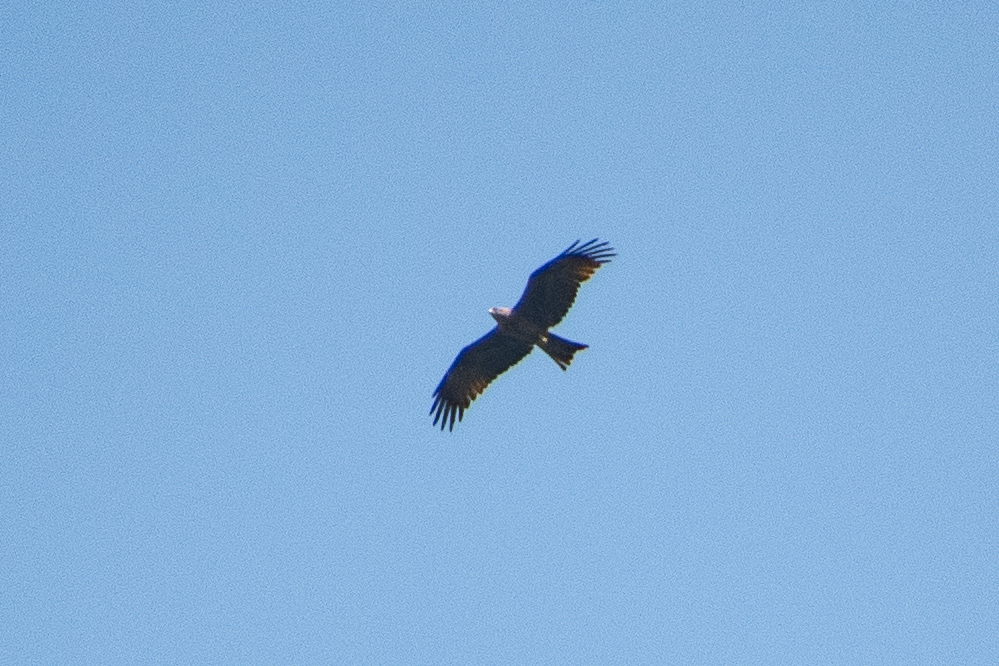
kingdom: Animalia
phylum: Chordata
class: Aves
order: Accipitriformes
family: Accipitridae
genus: Milvus
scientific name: Milvus migrans
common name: Black kite
